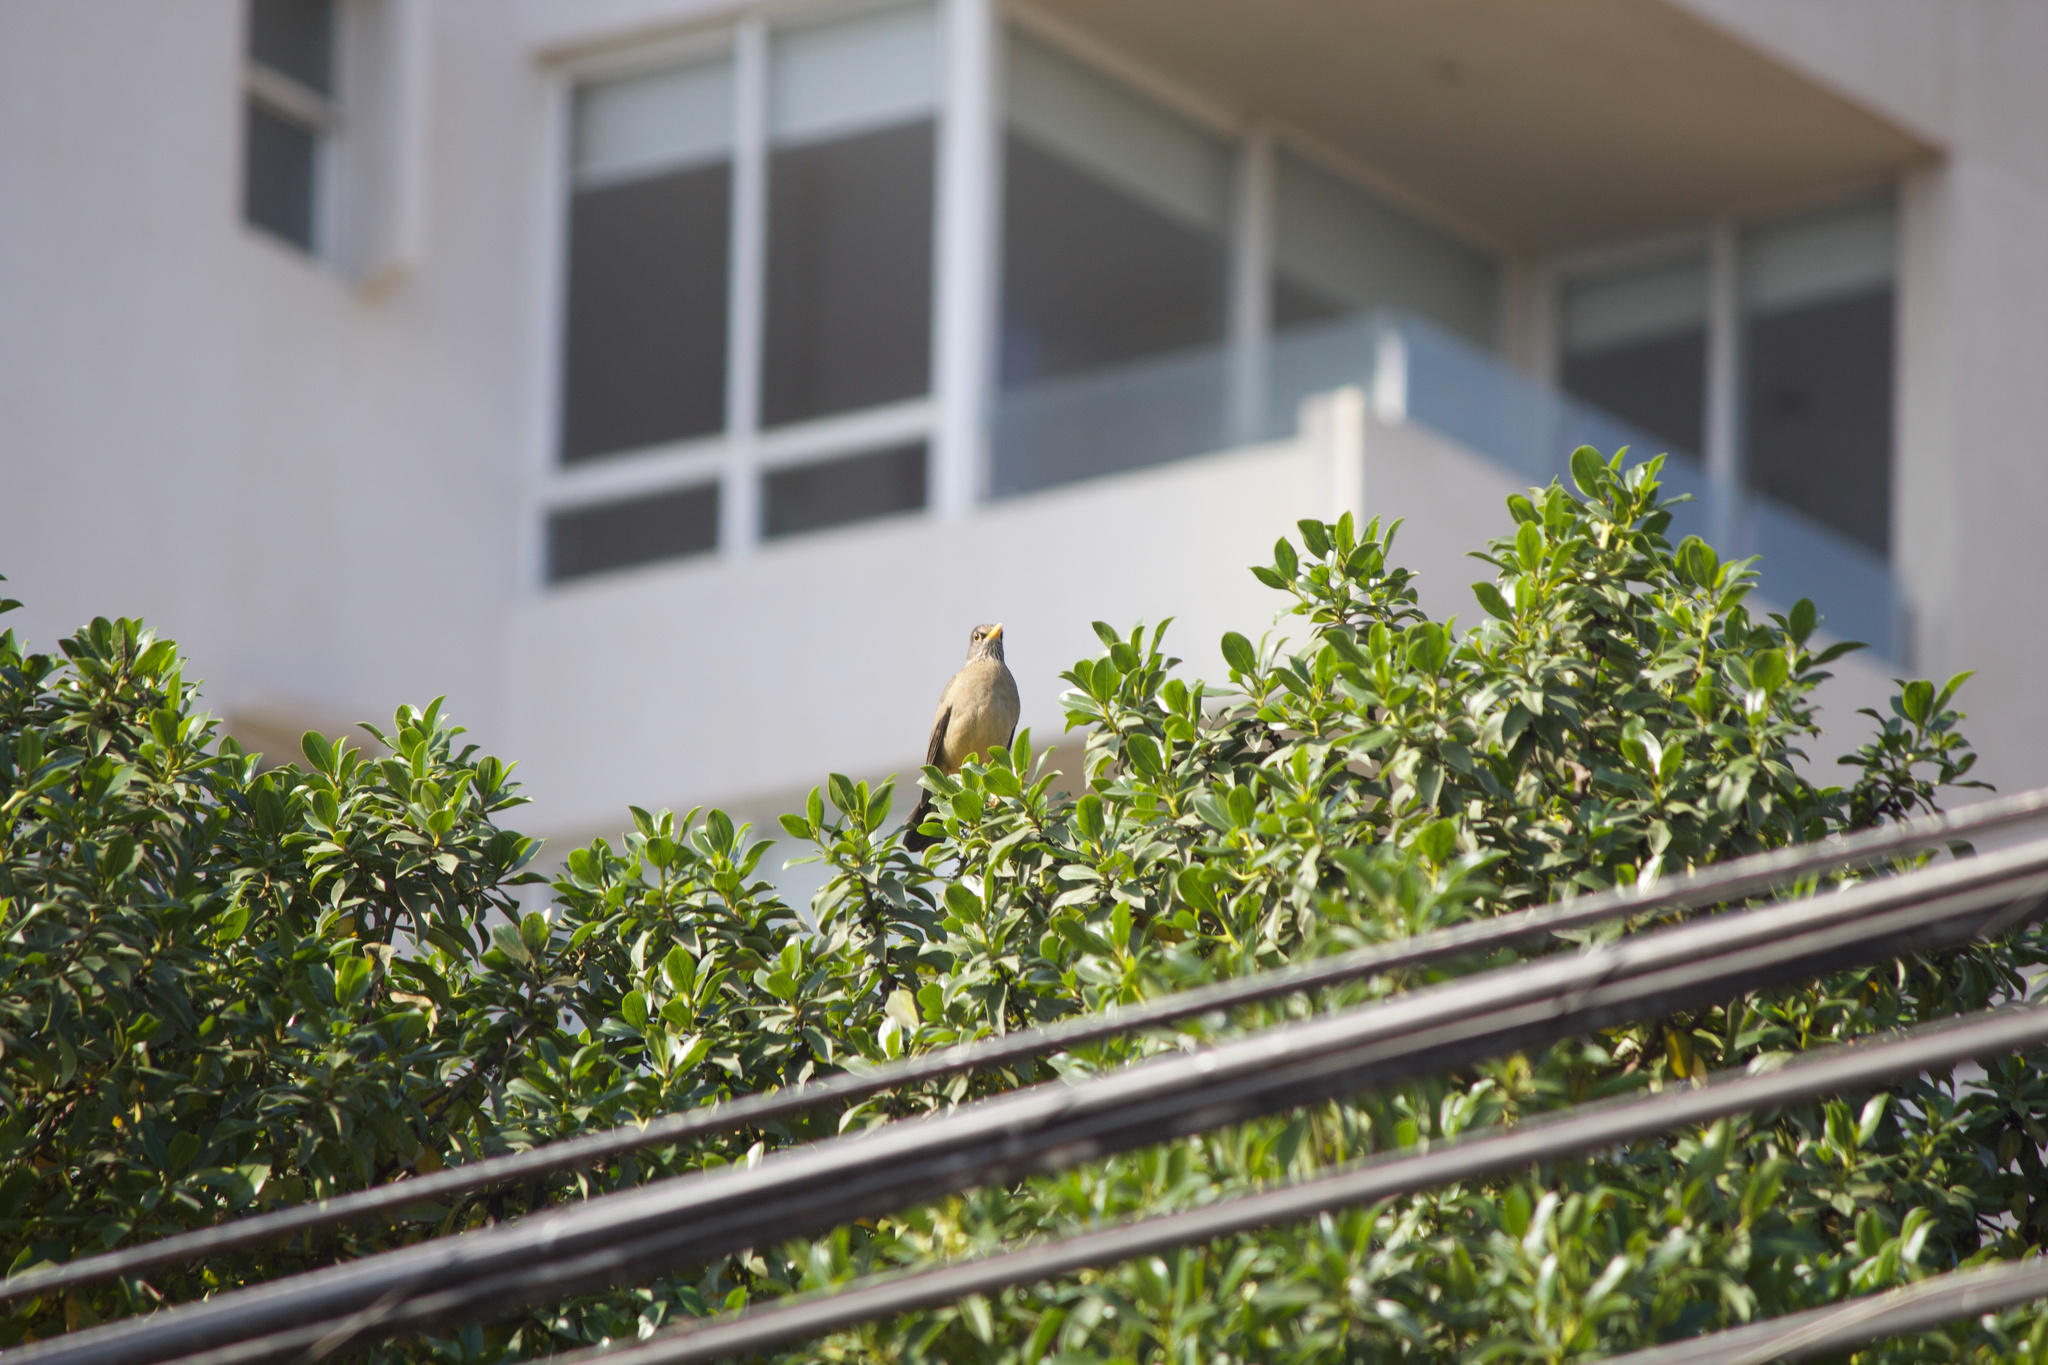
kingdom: Animalia
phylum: Chordata
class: Aves
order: Passeriformes
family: Turdidae
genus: Turdus
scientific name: Turdus falcklandii
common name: Austral thrush
